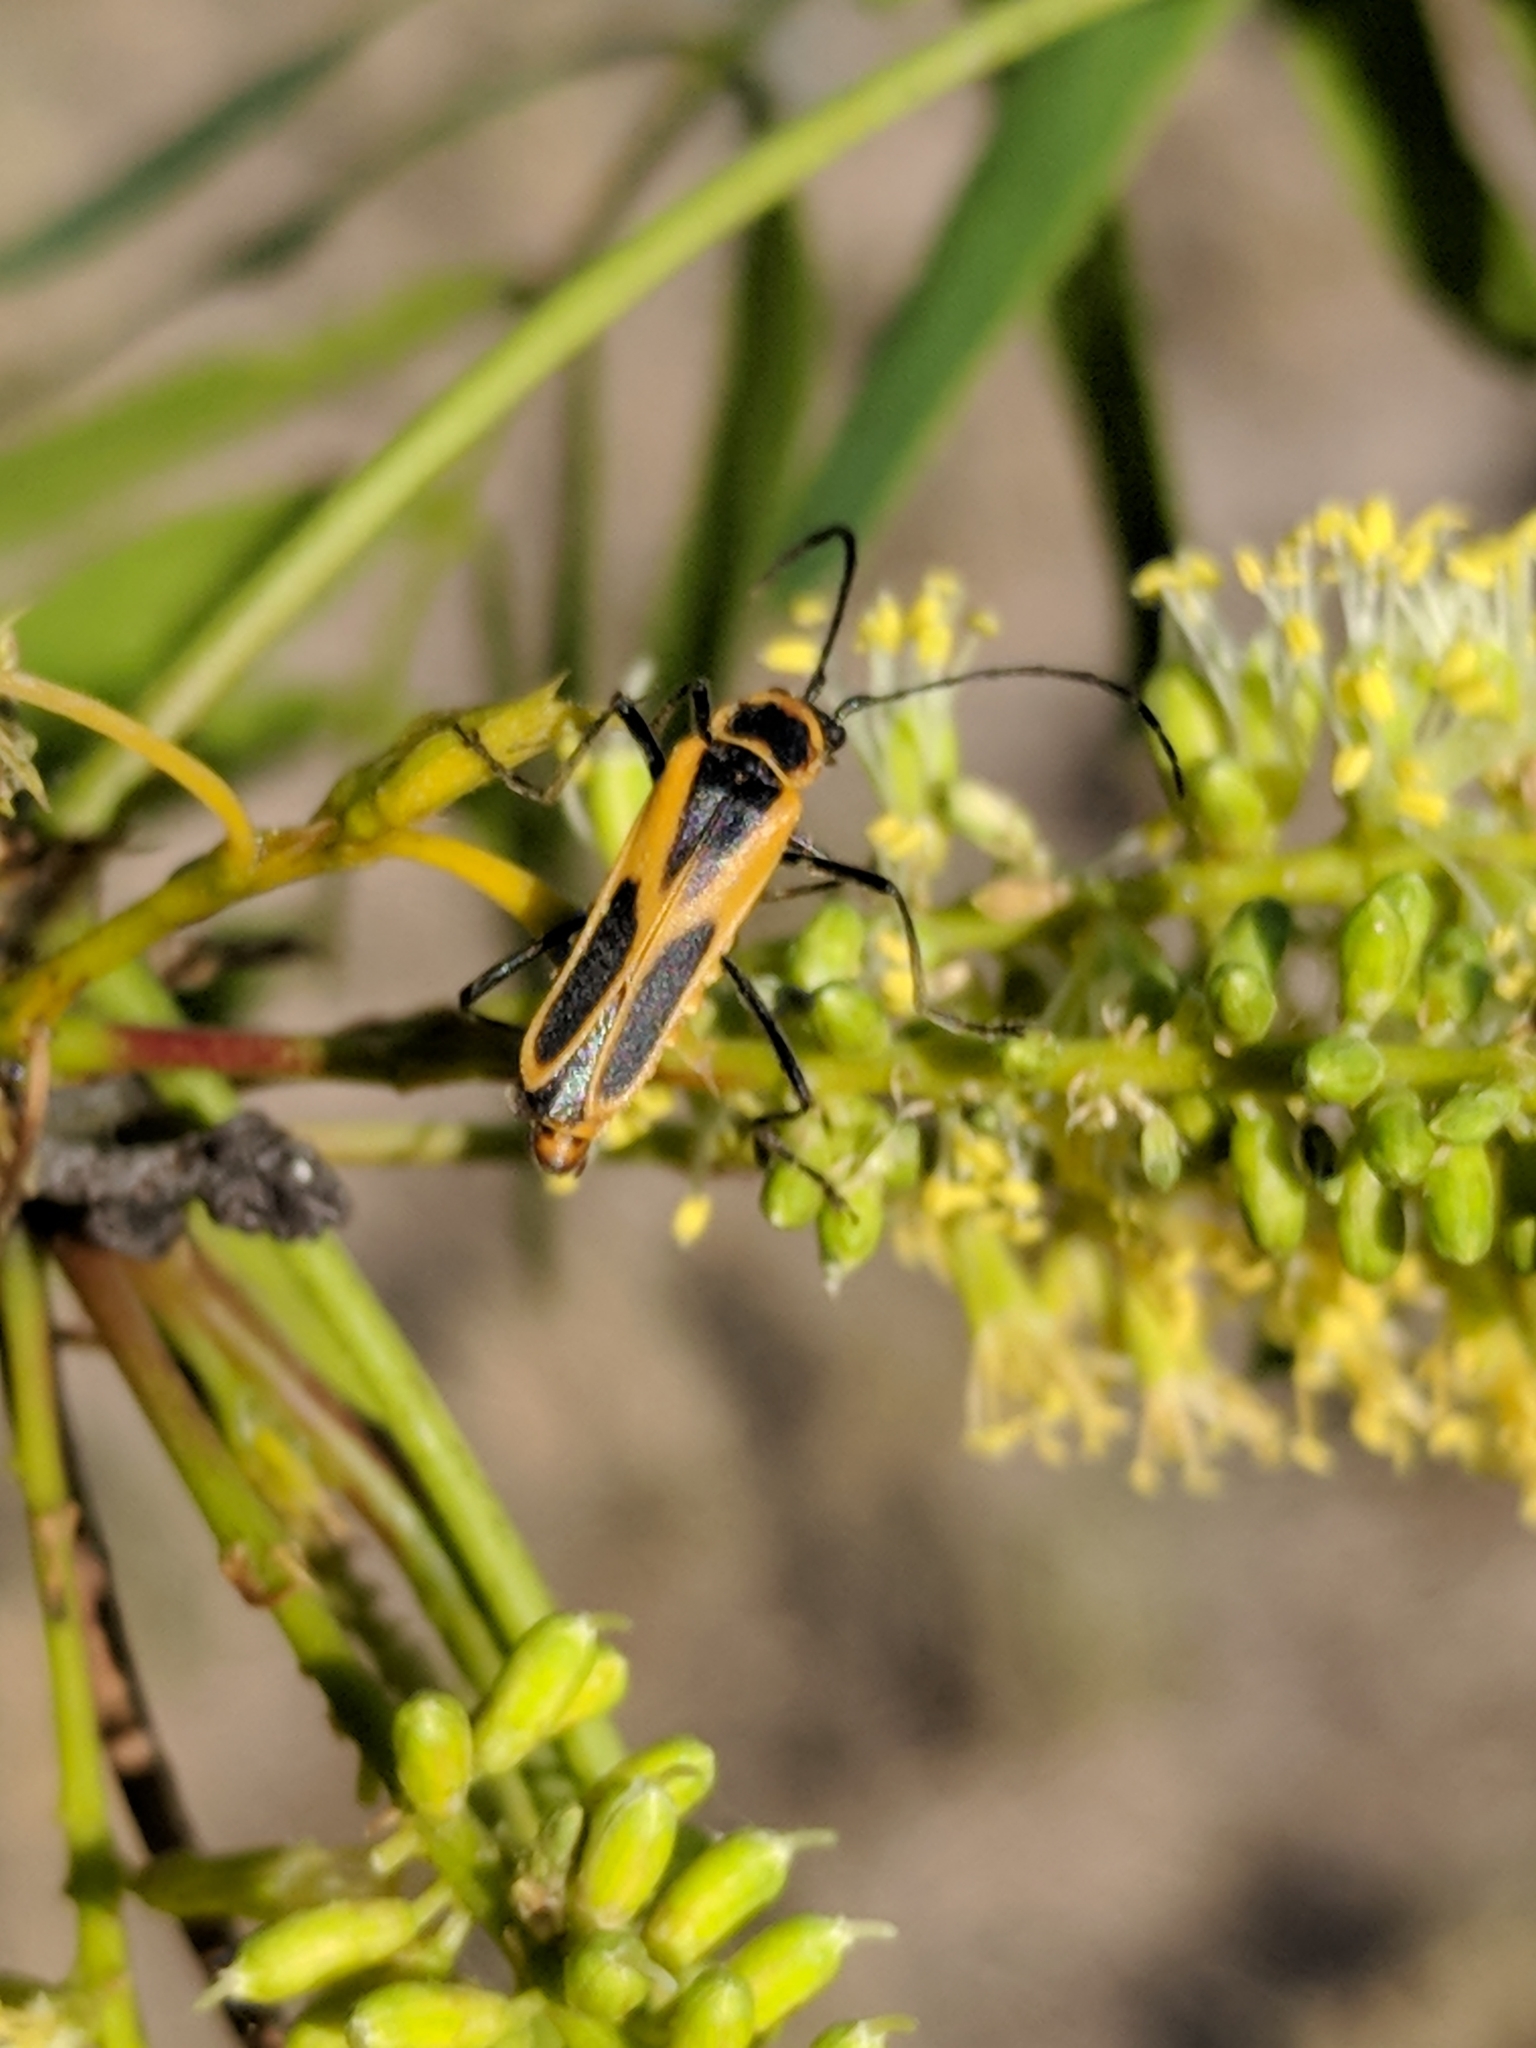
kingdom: Animalia
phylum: Arthropoda
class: Insecta
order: Coleoptera
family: Cantharidae
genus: Chauliognathus
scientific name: Chauliognathus scutellaris
